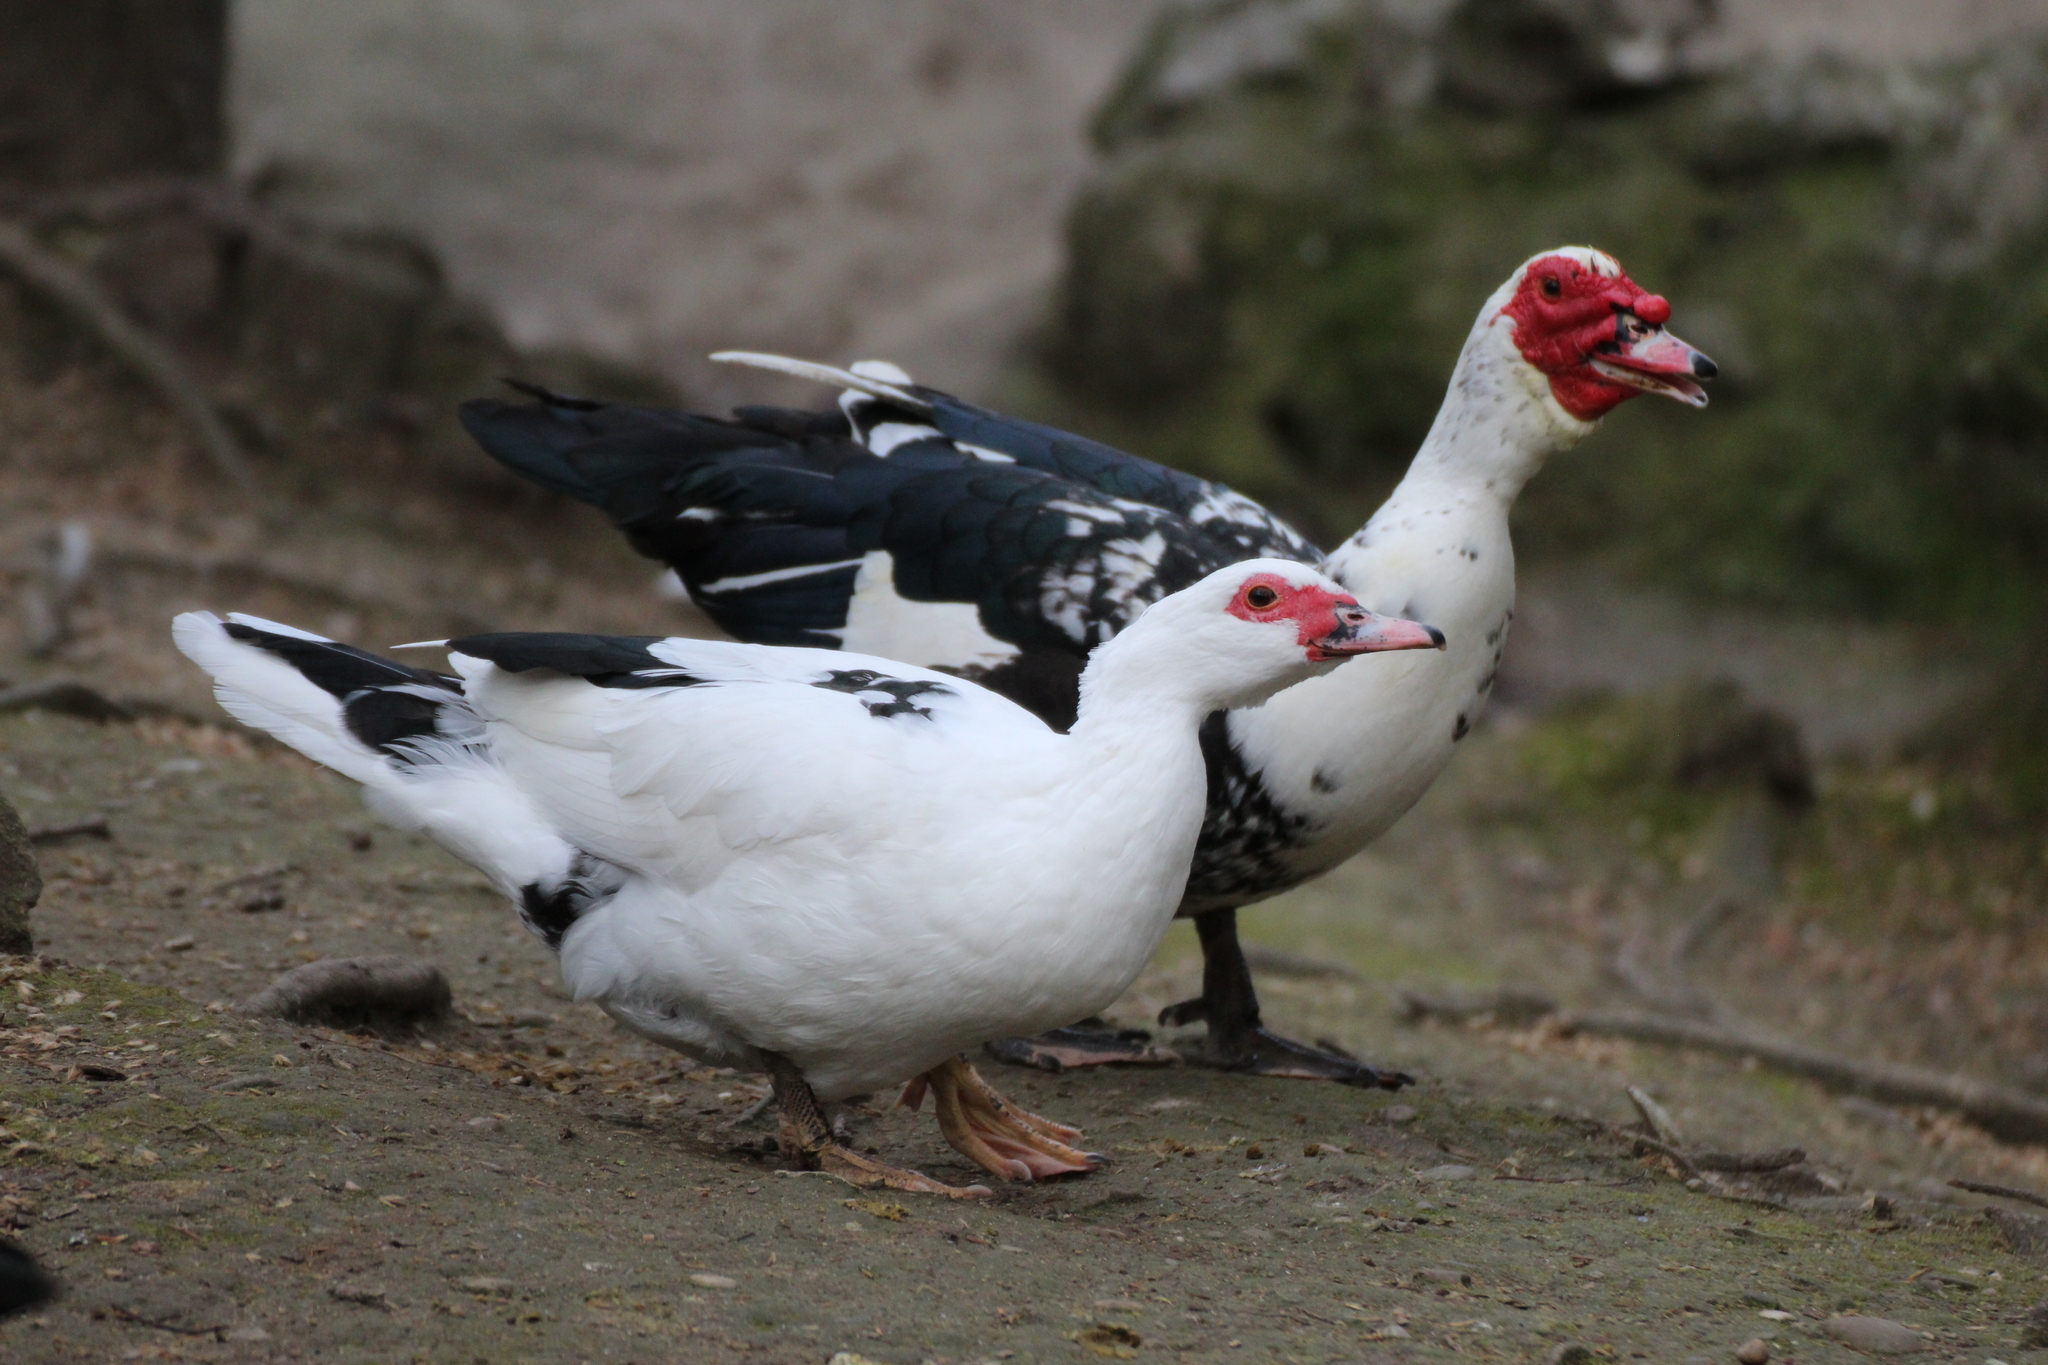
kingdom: Animalia
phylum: Chordata
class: Aves
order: Anseriformes
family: Anatidae
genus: Cairina
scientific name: Cairina moschata
